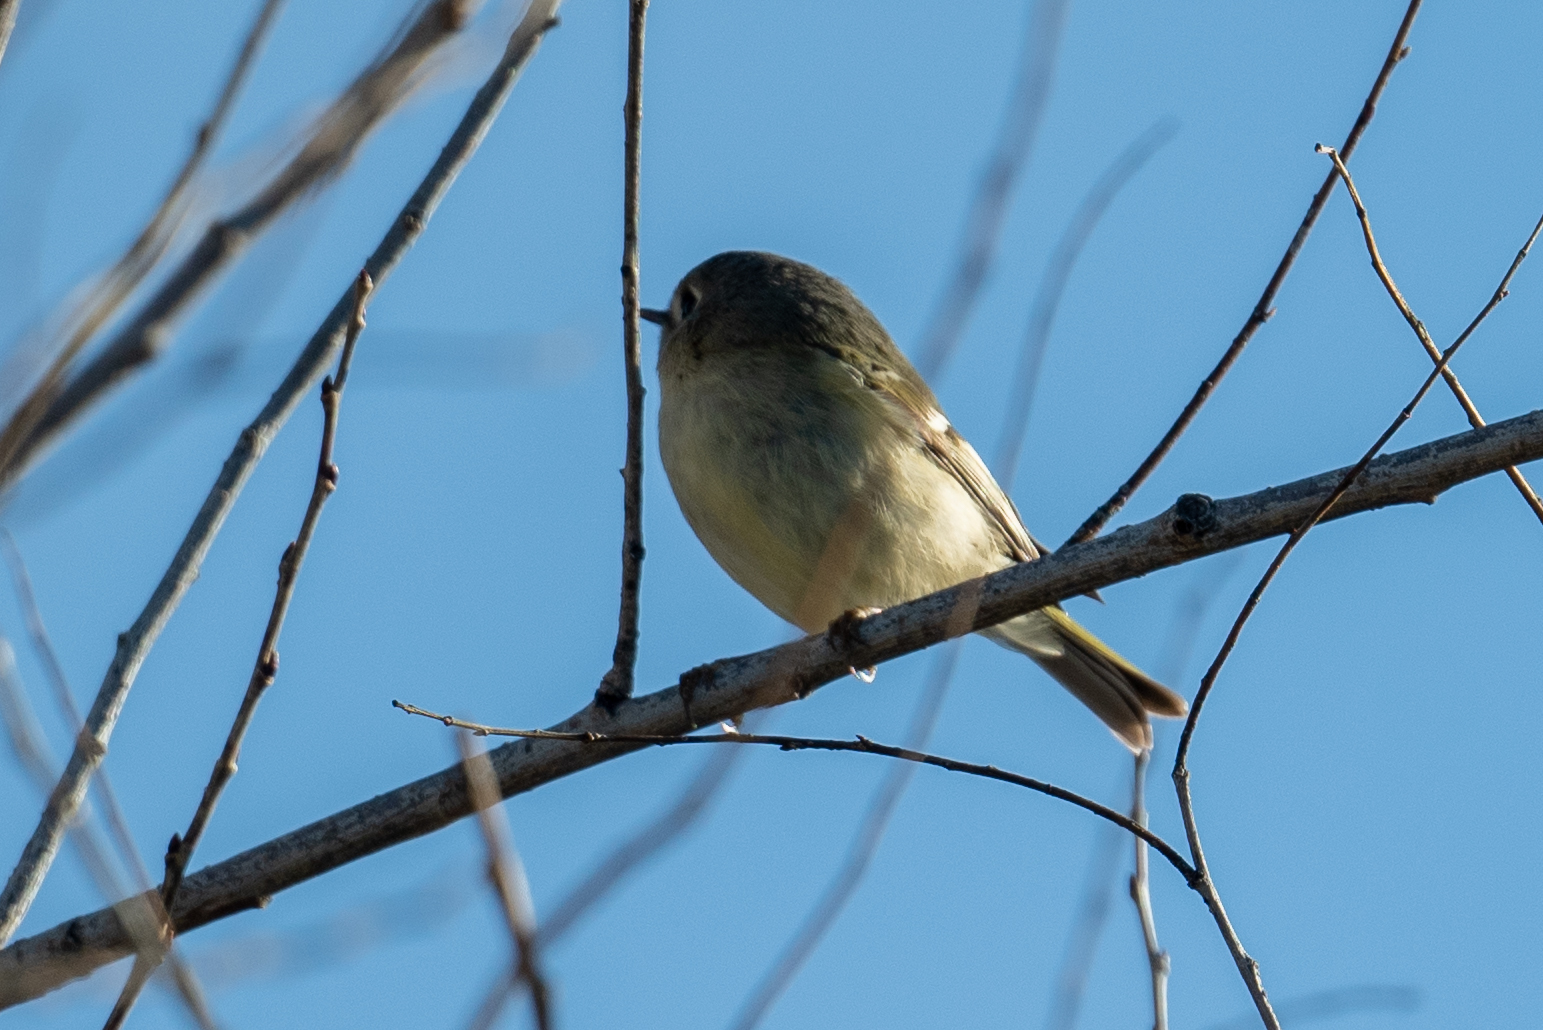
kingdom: Animalia
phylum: Chordata
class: Aves
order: Passeriformes
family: Regulidae
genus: Regulus
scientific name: Regulus calendula
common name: Ruby-crowned kinglet
